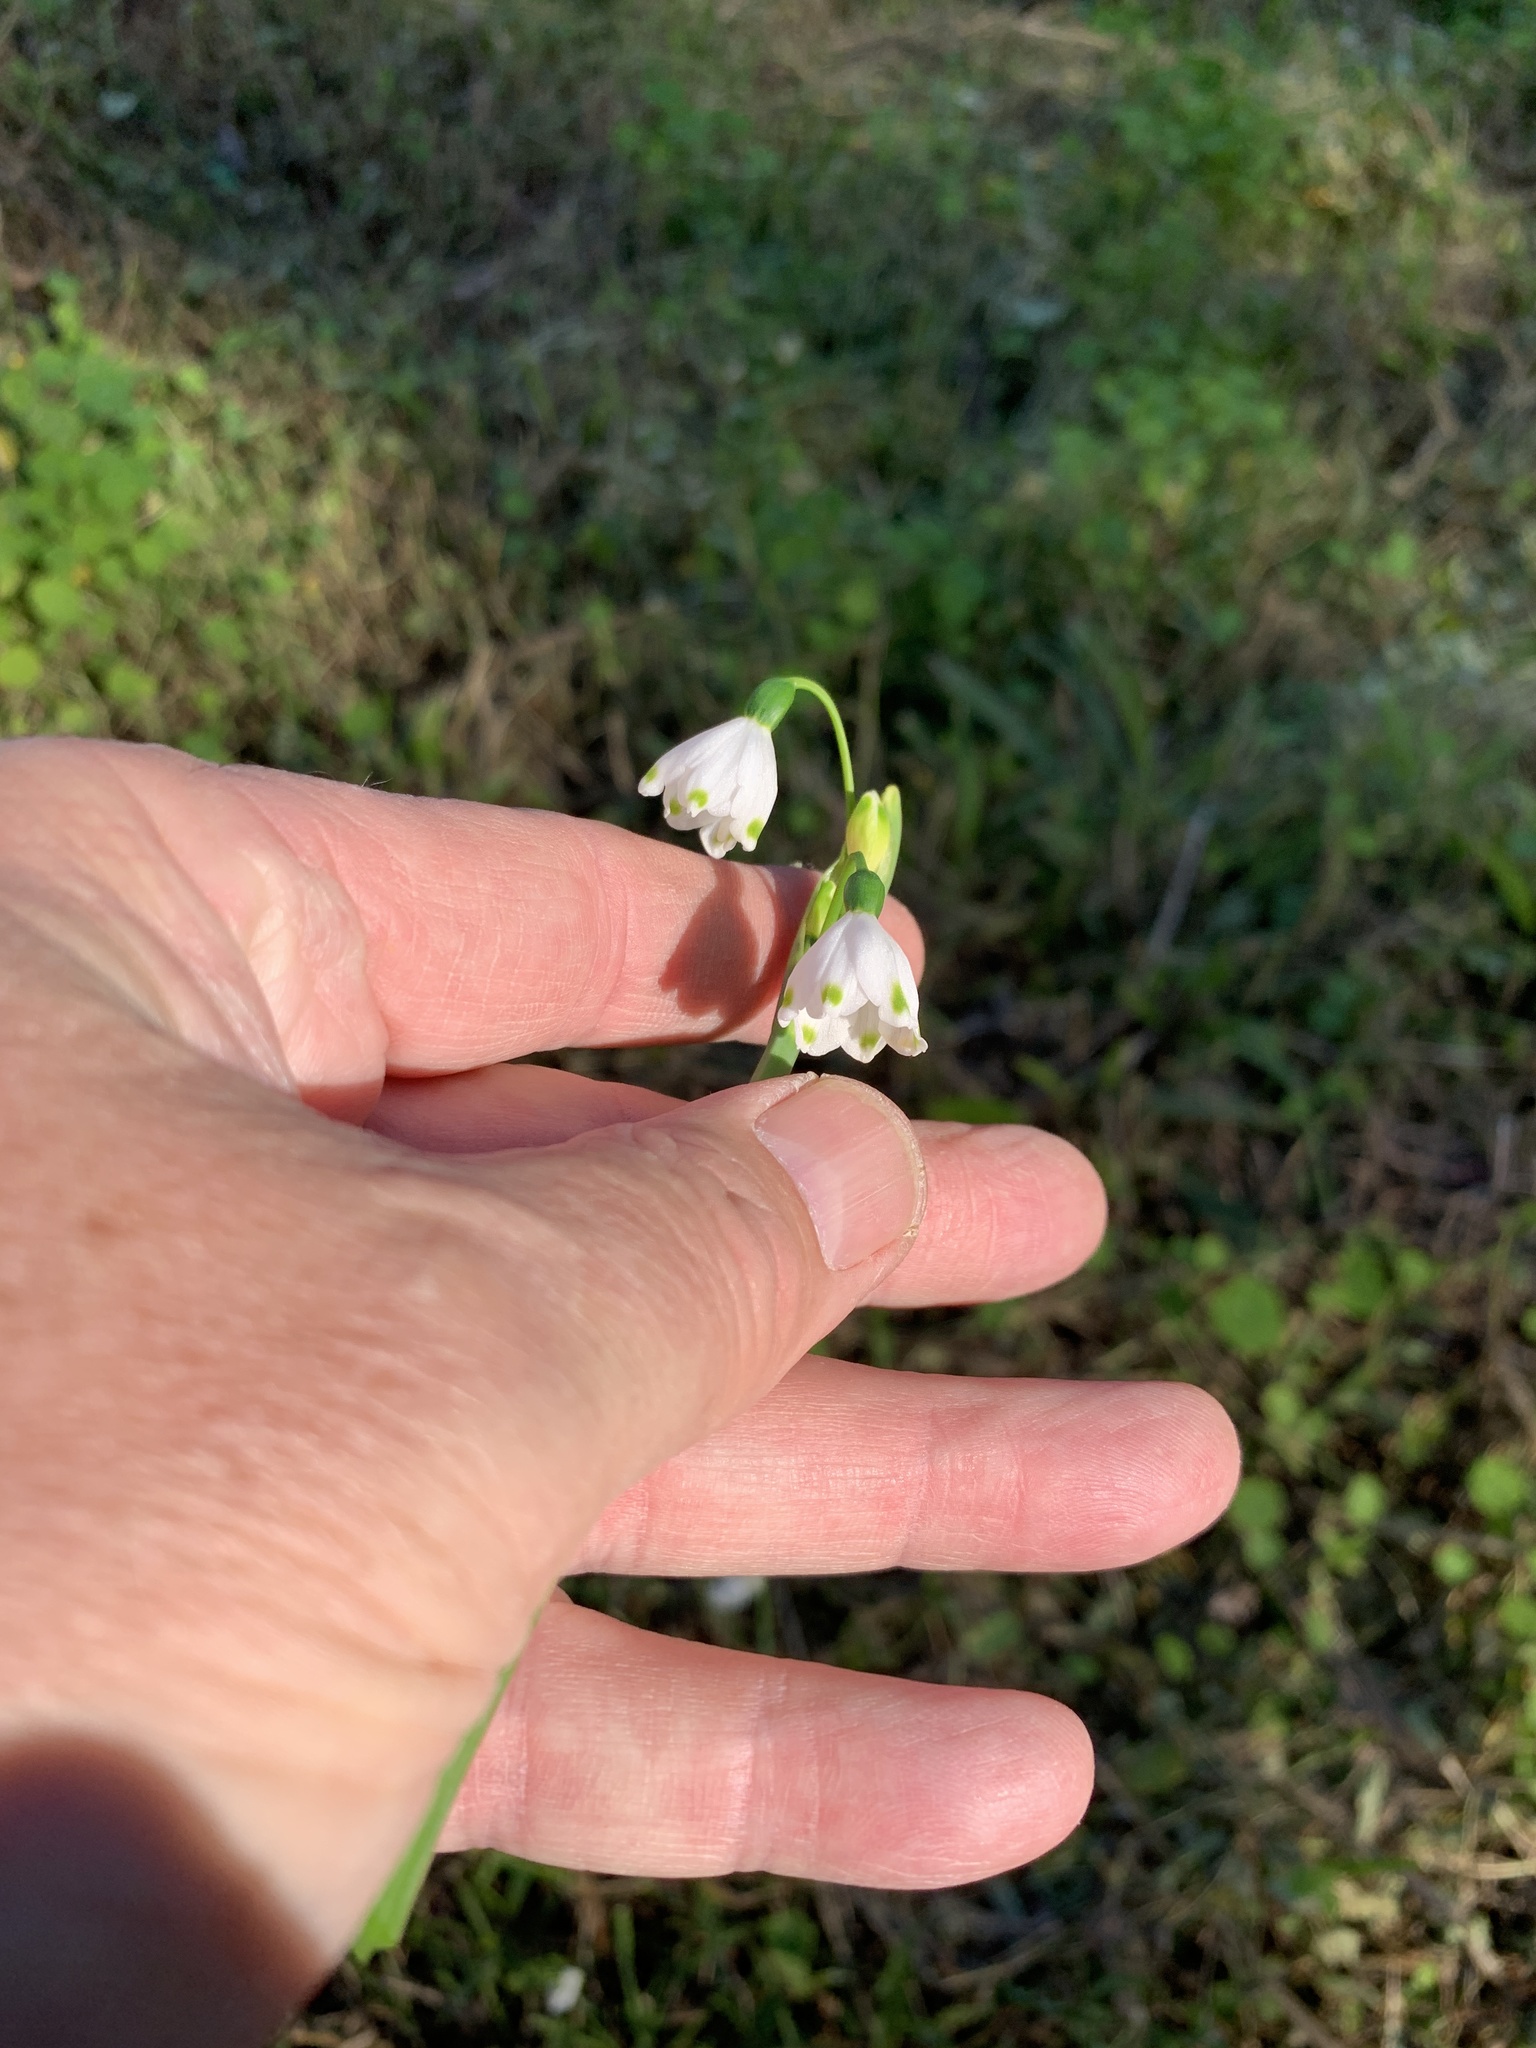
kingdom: Plantae
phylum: Tracheophyta
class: Liliopsida
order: Asparagales
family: Amaryllidaceae
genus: Leucojum
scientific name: Leucojum aestivum
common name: Summer snowflake
